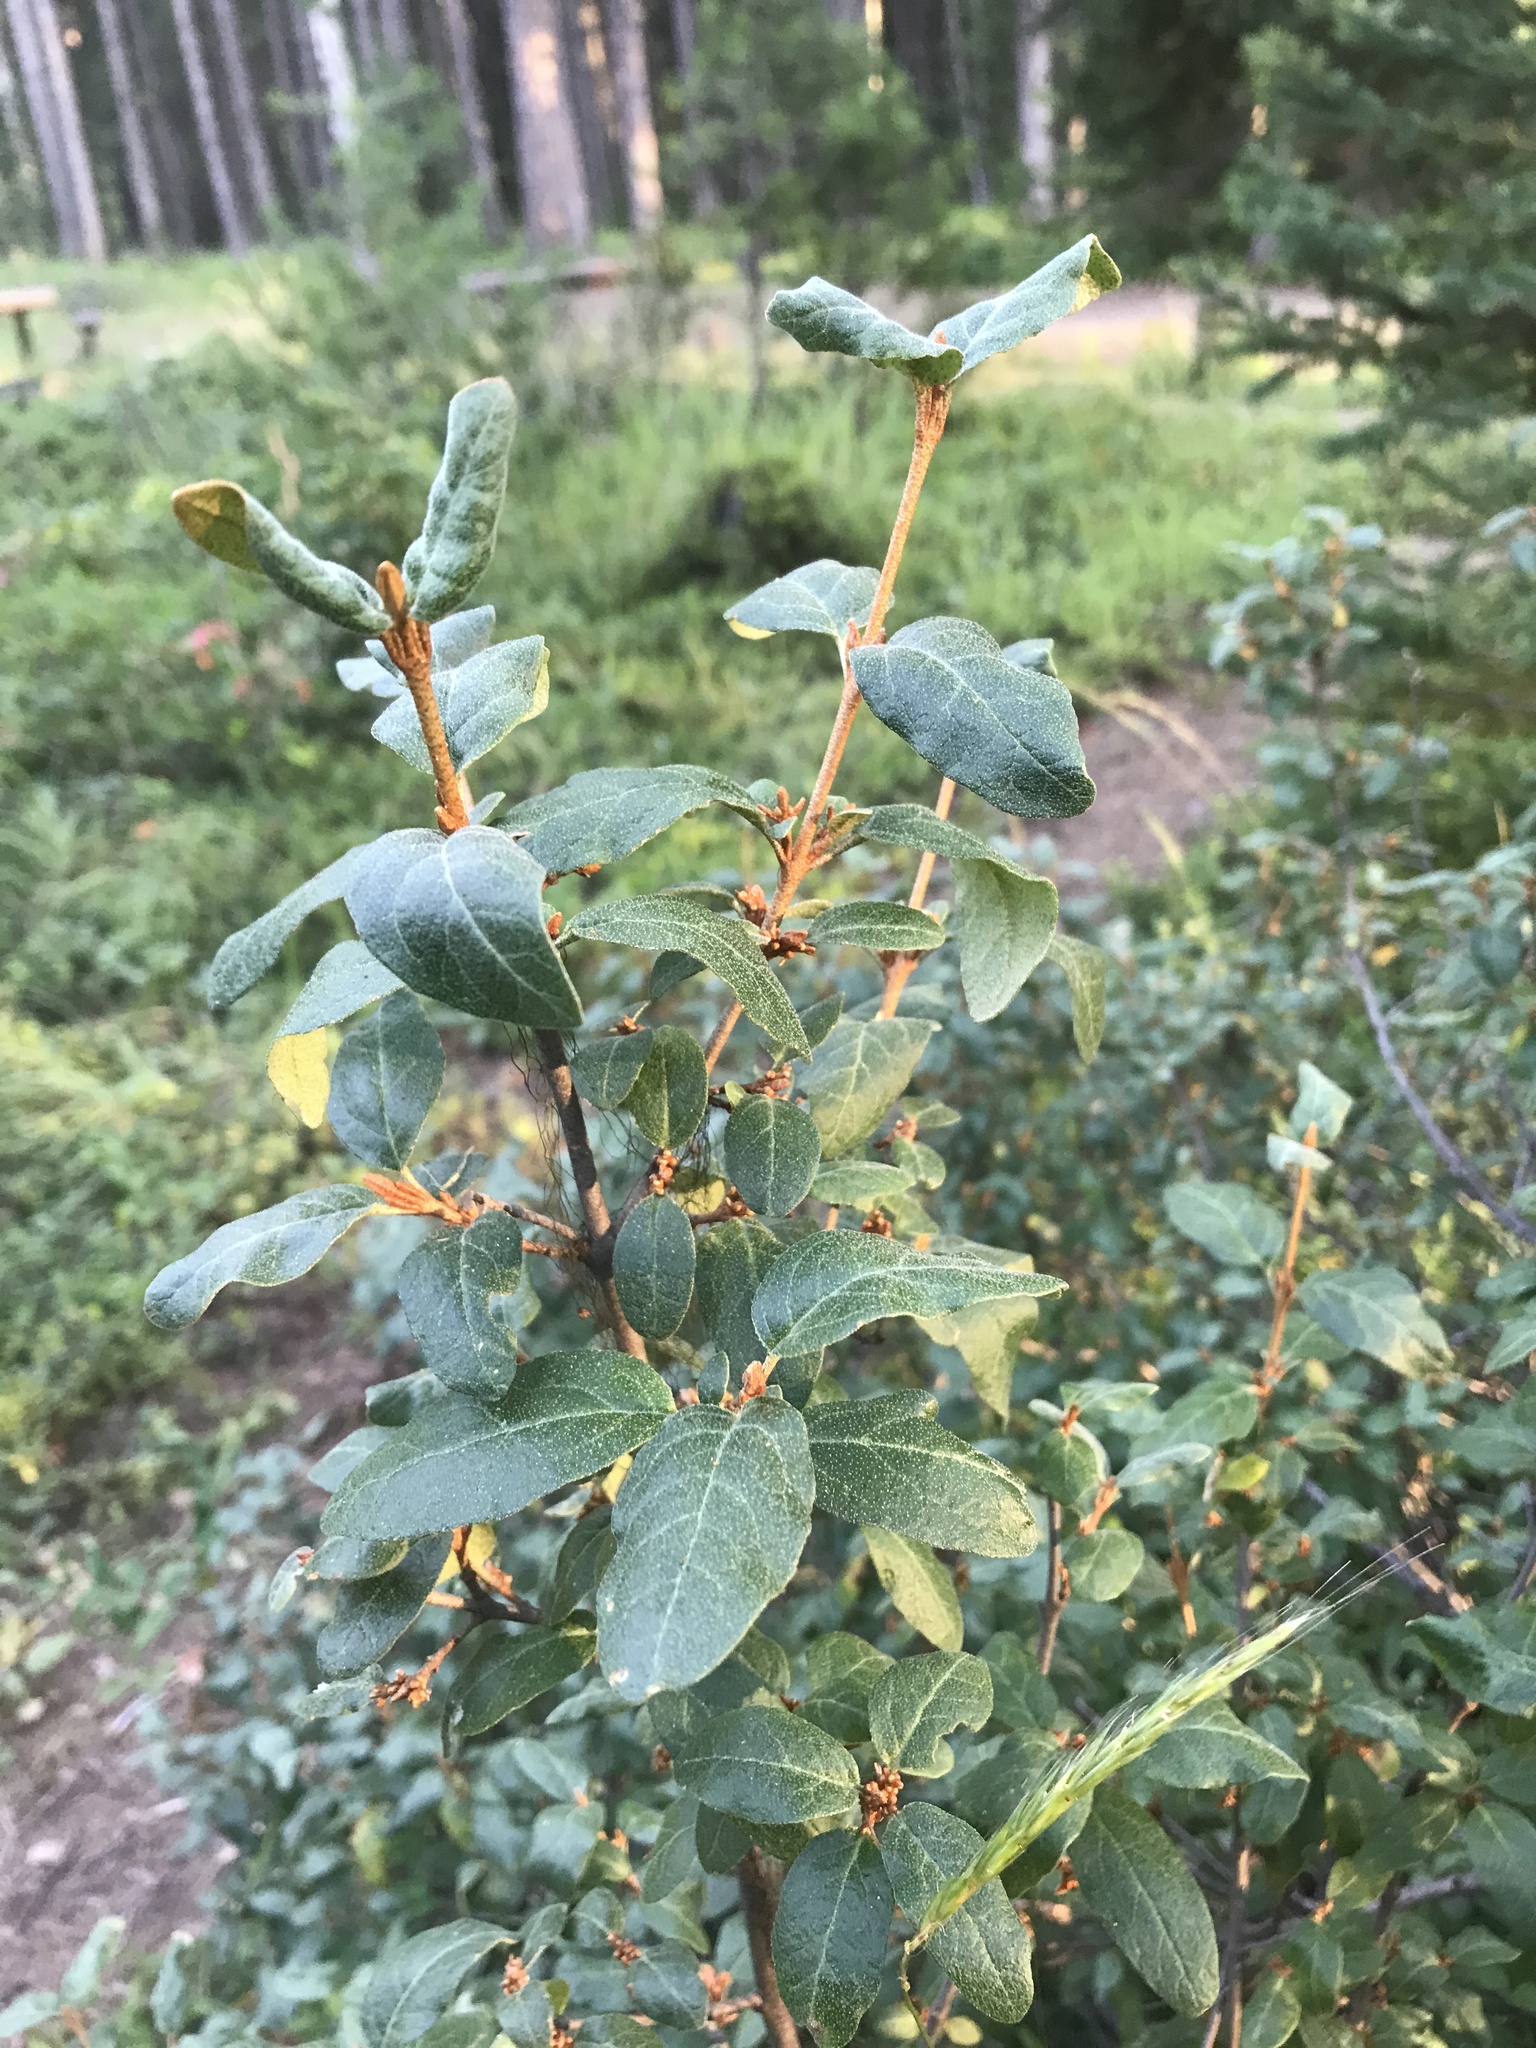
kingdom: Plantae
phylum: Tracheophyta
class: Magnoliopsida
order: Rosales
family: Elaeagnaceae
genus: Shepherdia
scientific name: Shepherdia canadensis
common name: Soapberry
